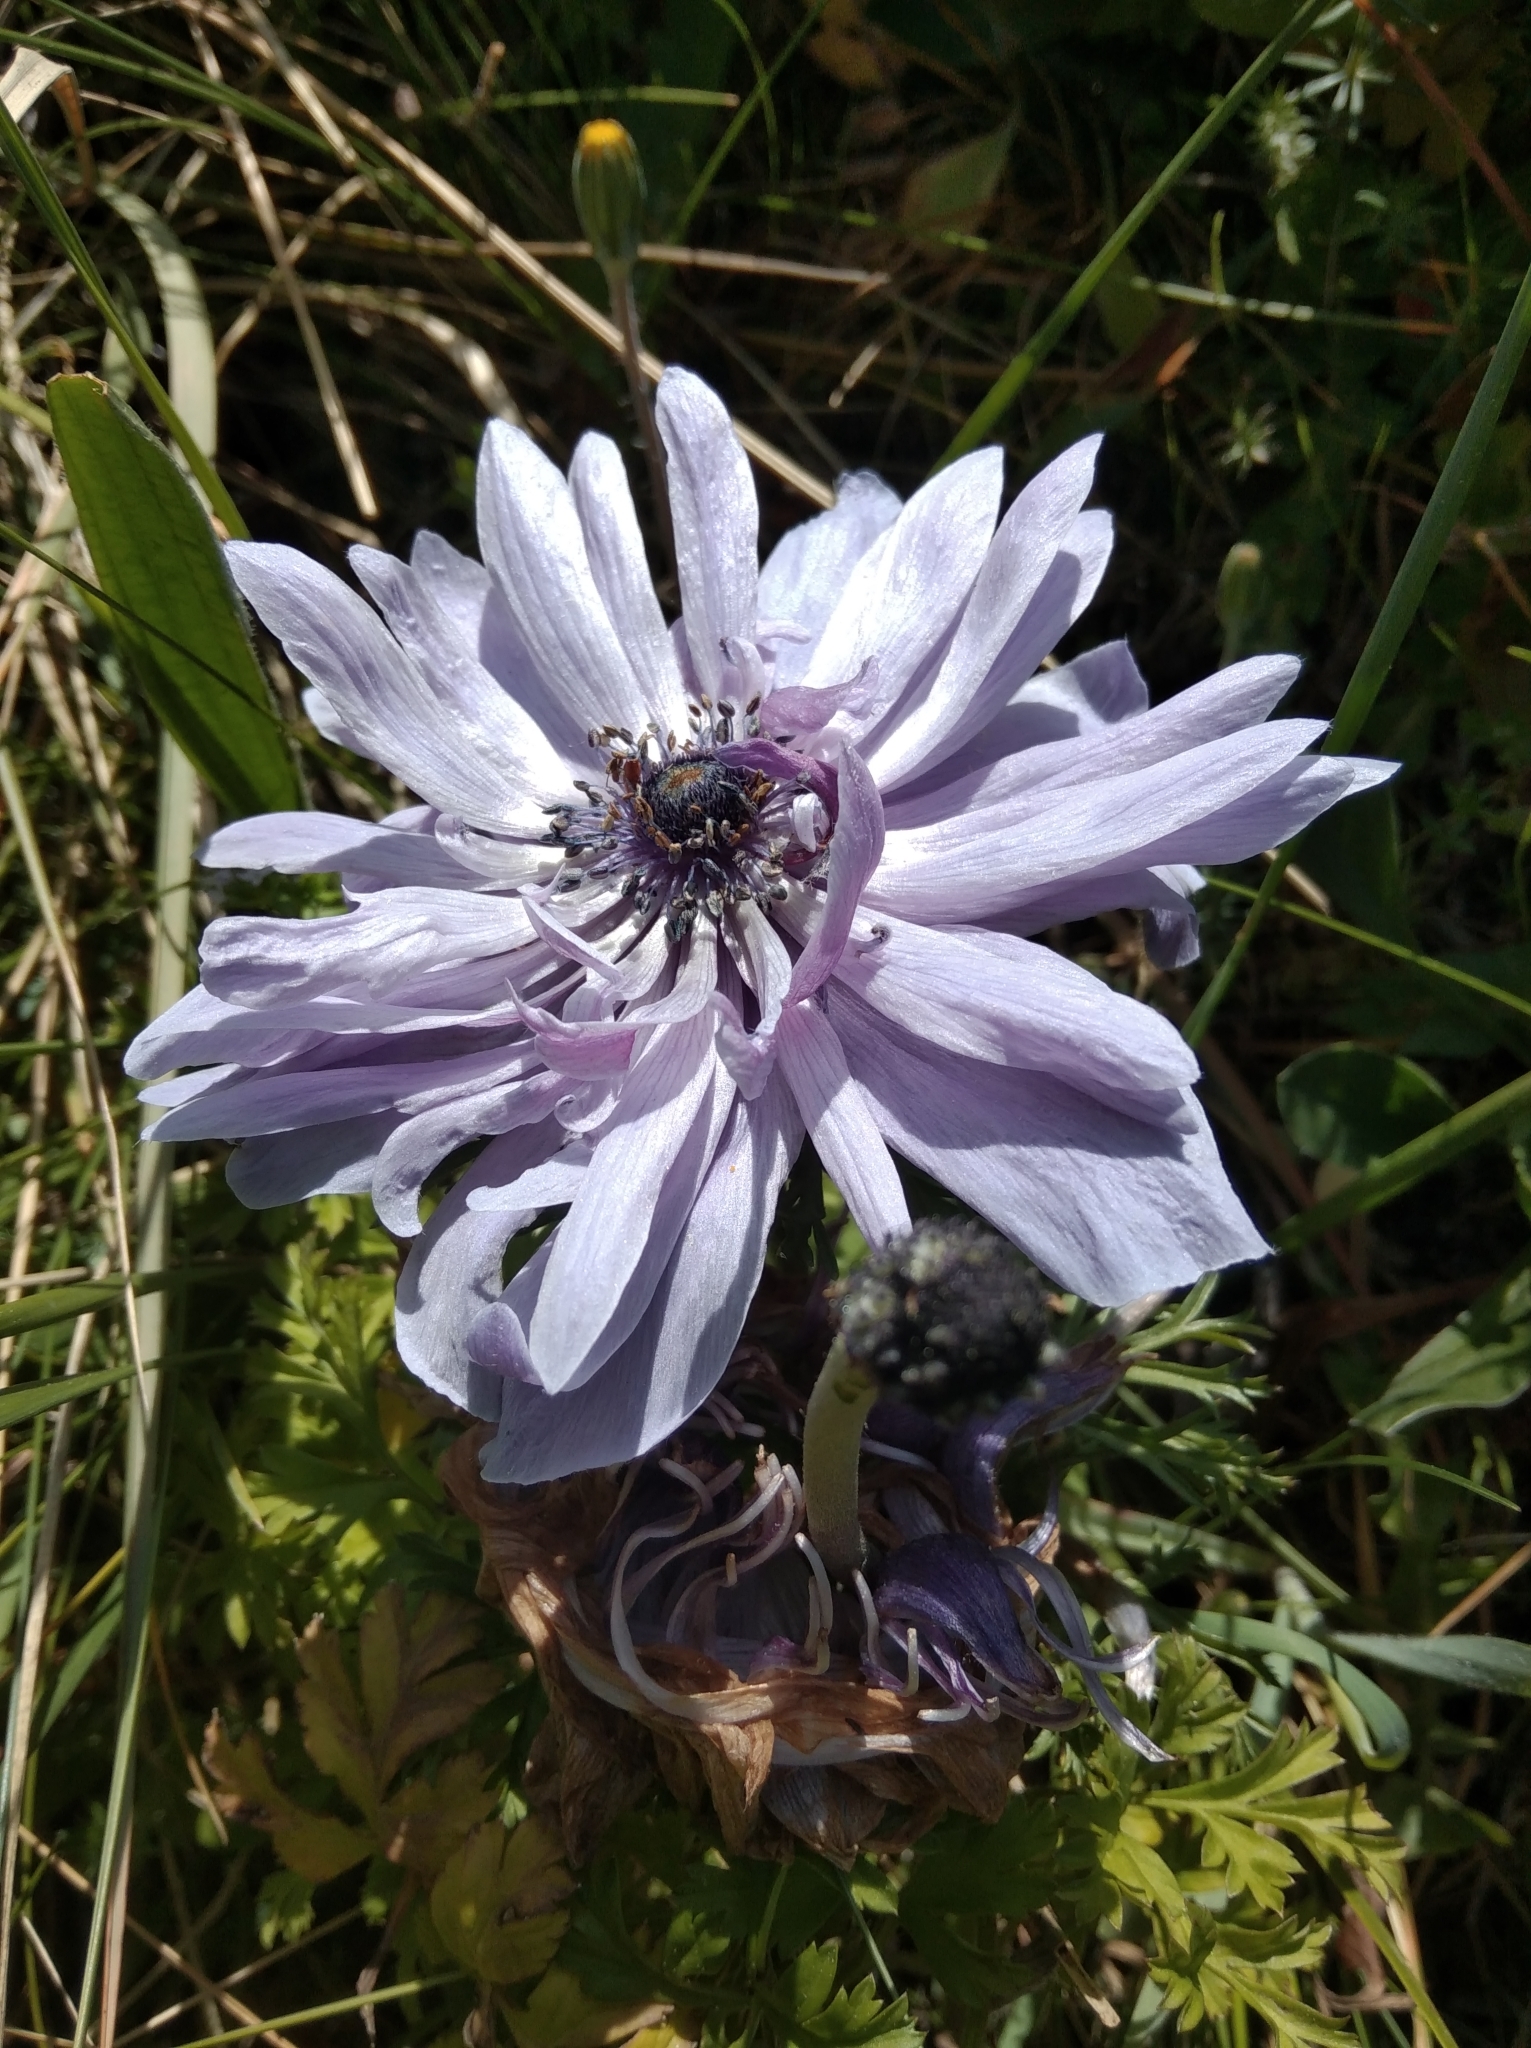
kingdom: Plantae
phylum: Tracheophyta
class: Magnoliopsida
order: Ranunculales
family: Ranunculaceae
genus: Anemone
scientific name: Anemone coronaria
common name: Poppy anemone
